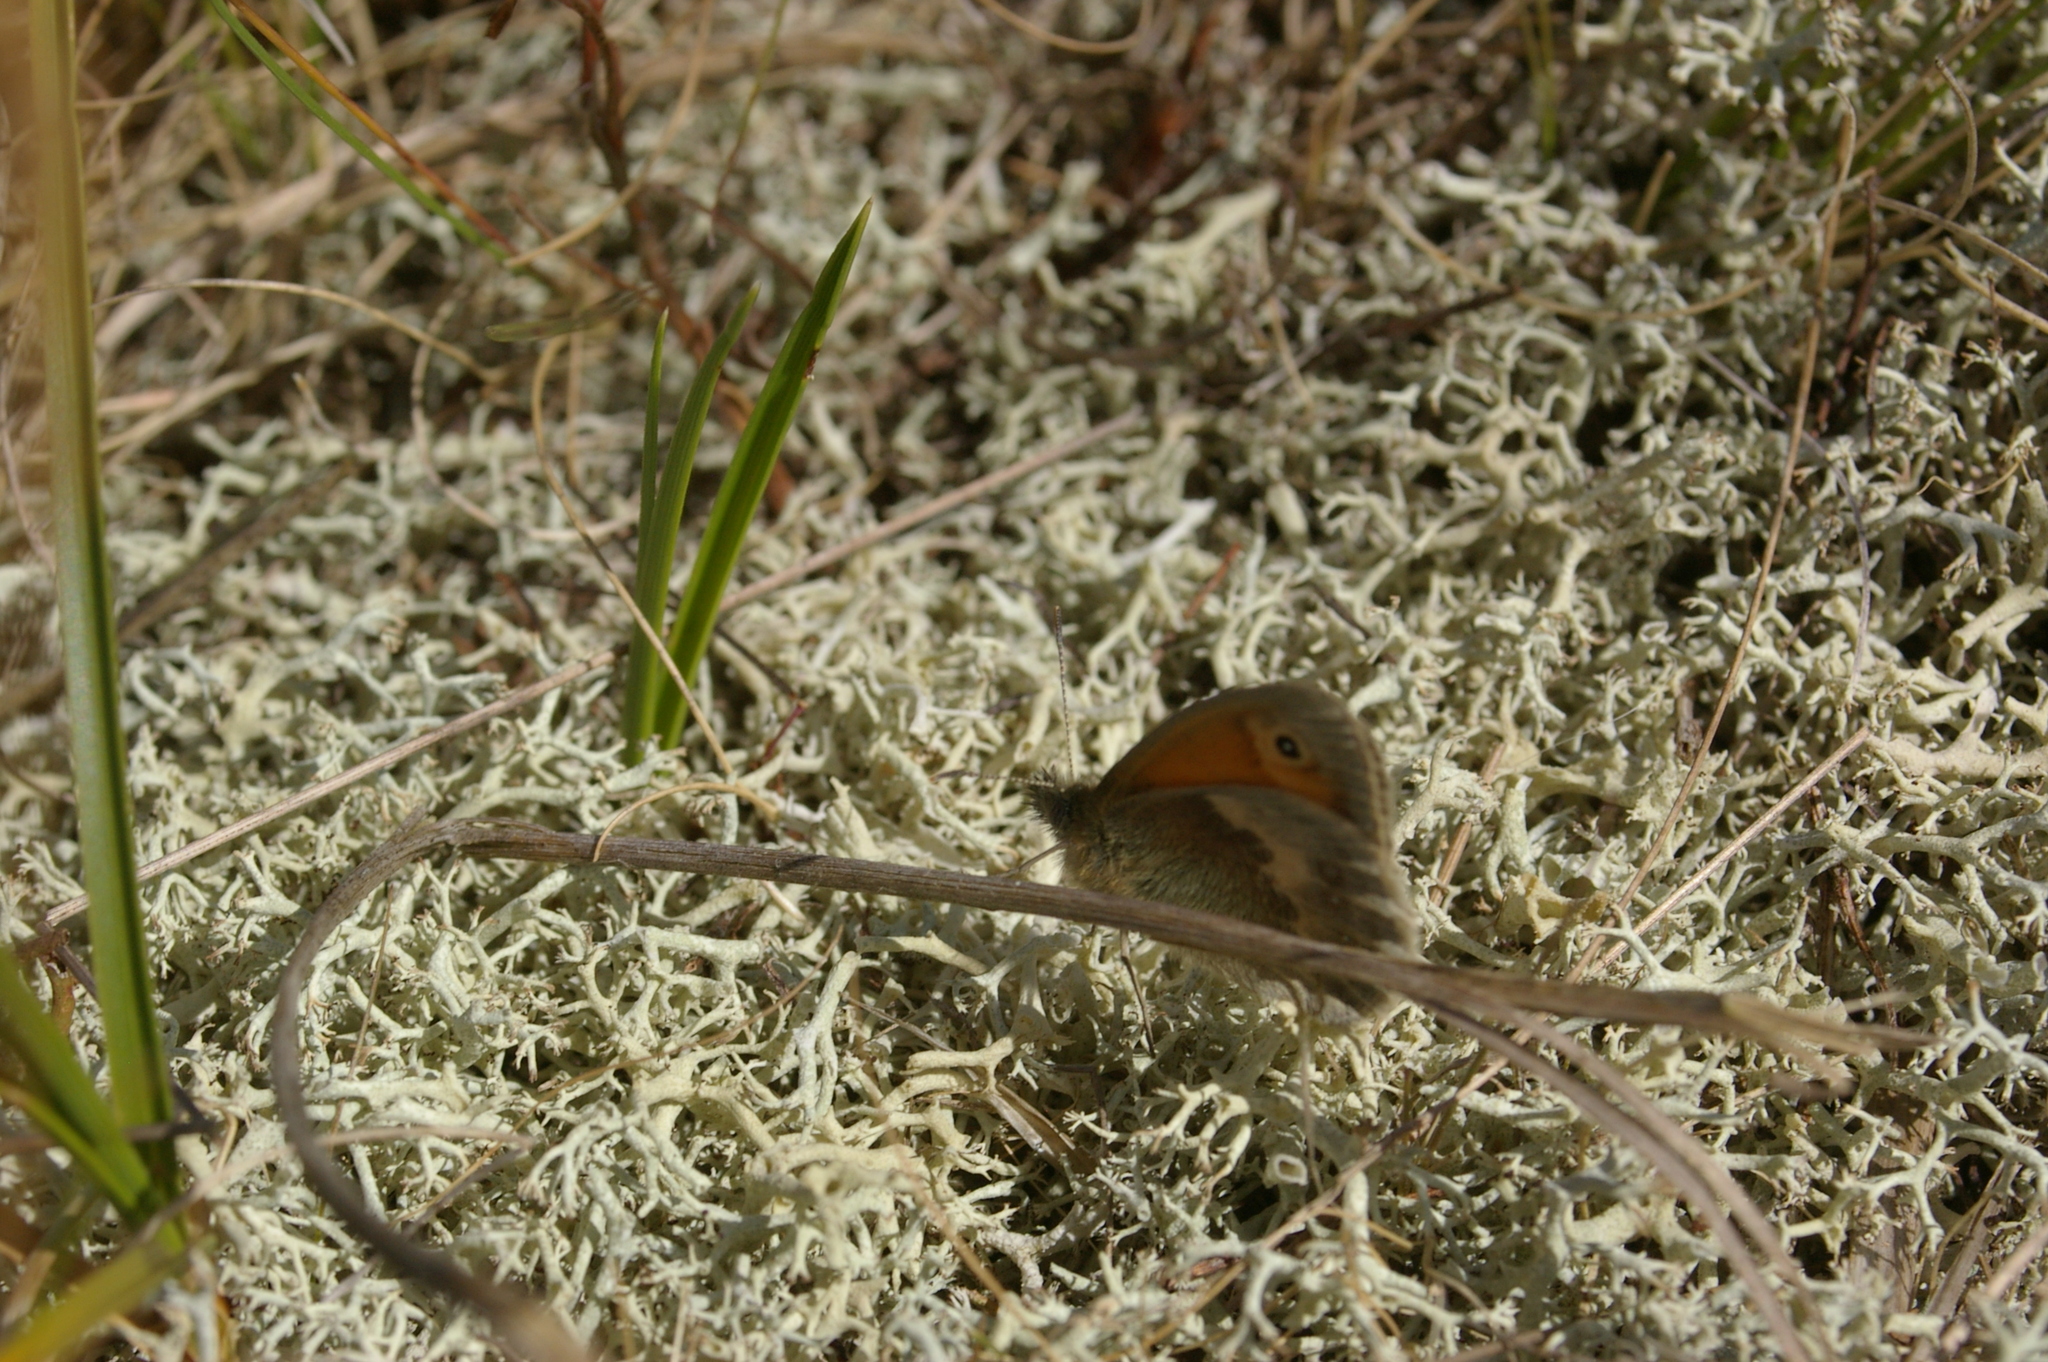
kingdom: Animalia
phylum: Arthropoda
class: Insecta
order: Lepidoptera
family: Nymphalidae
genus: Coenonympha
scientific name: Coenonympha pamphilus
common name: Small heath
